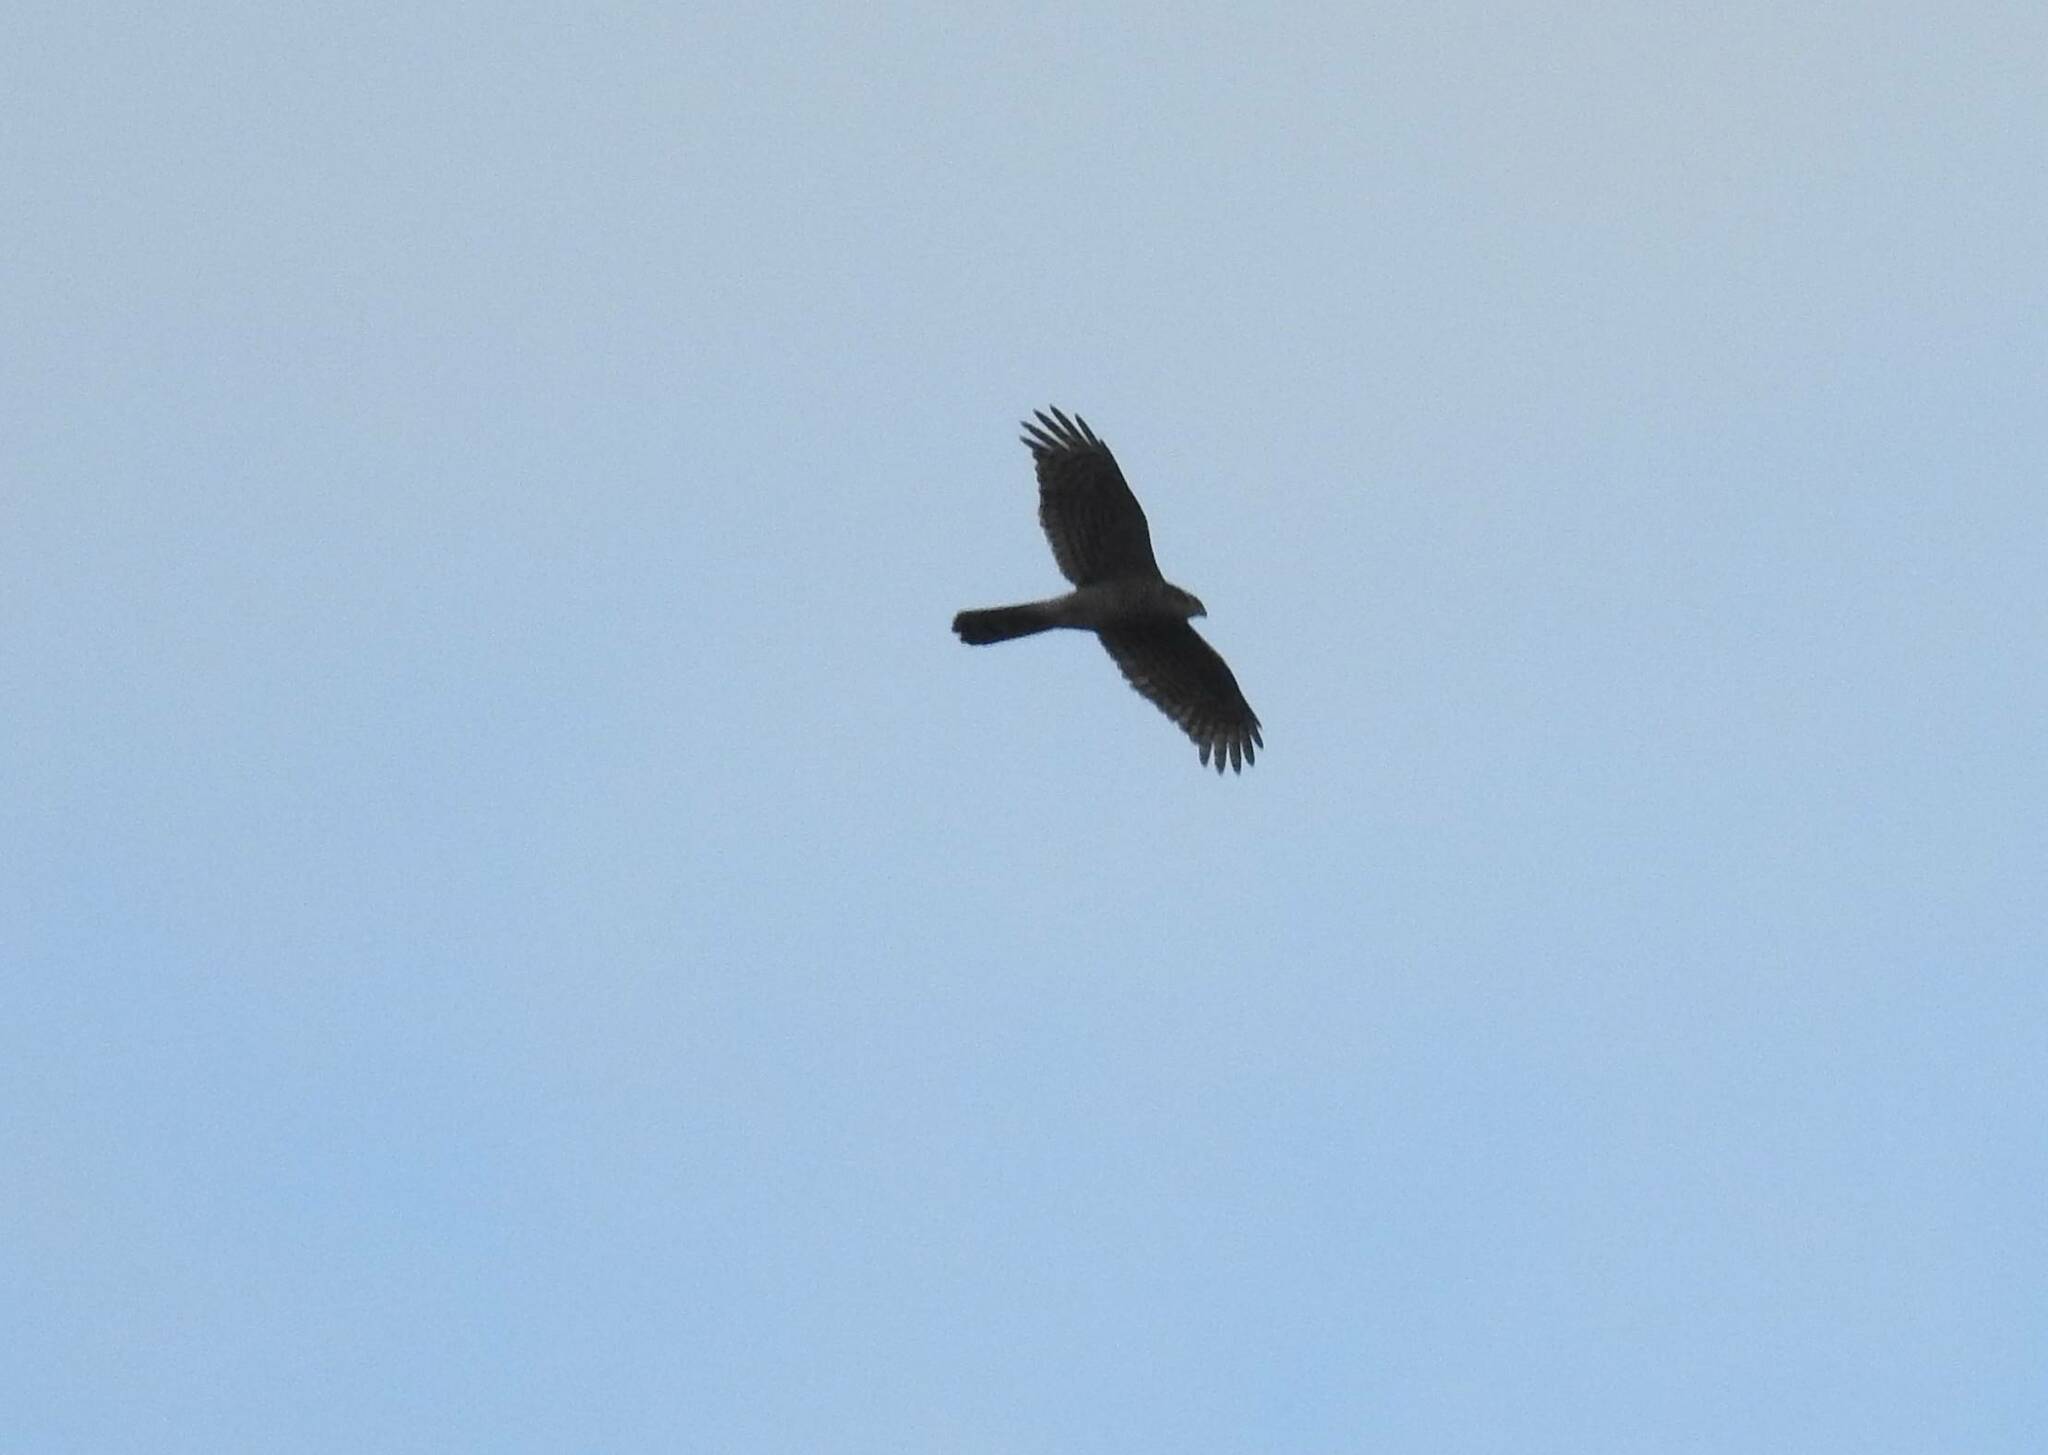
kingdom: Animalia
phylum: Chordata
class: Aves
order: Accipitriformes
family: Accipitridae
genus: Accipiter
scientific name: Accipiter nisus
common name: Eurasian sparrowhawk
